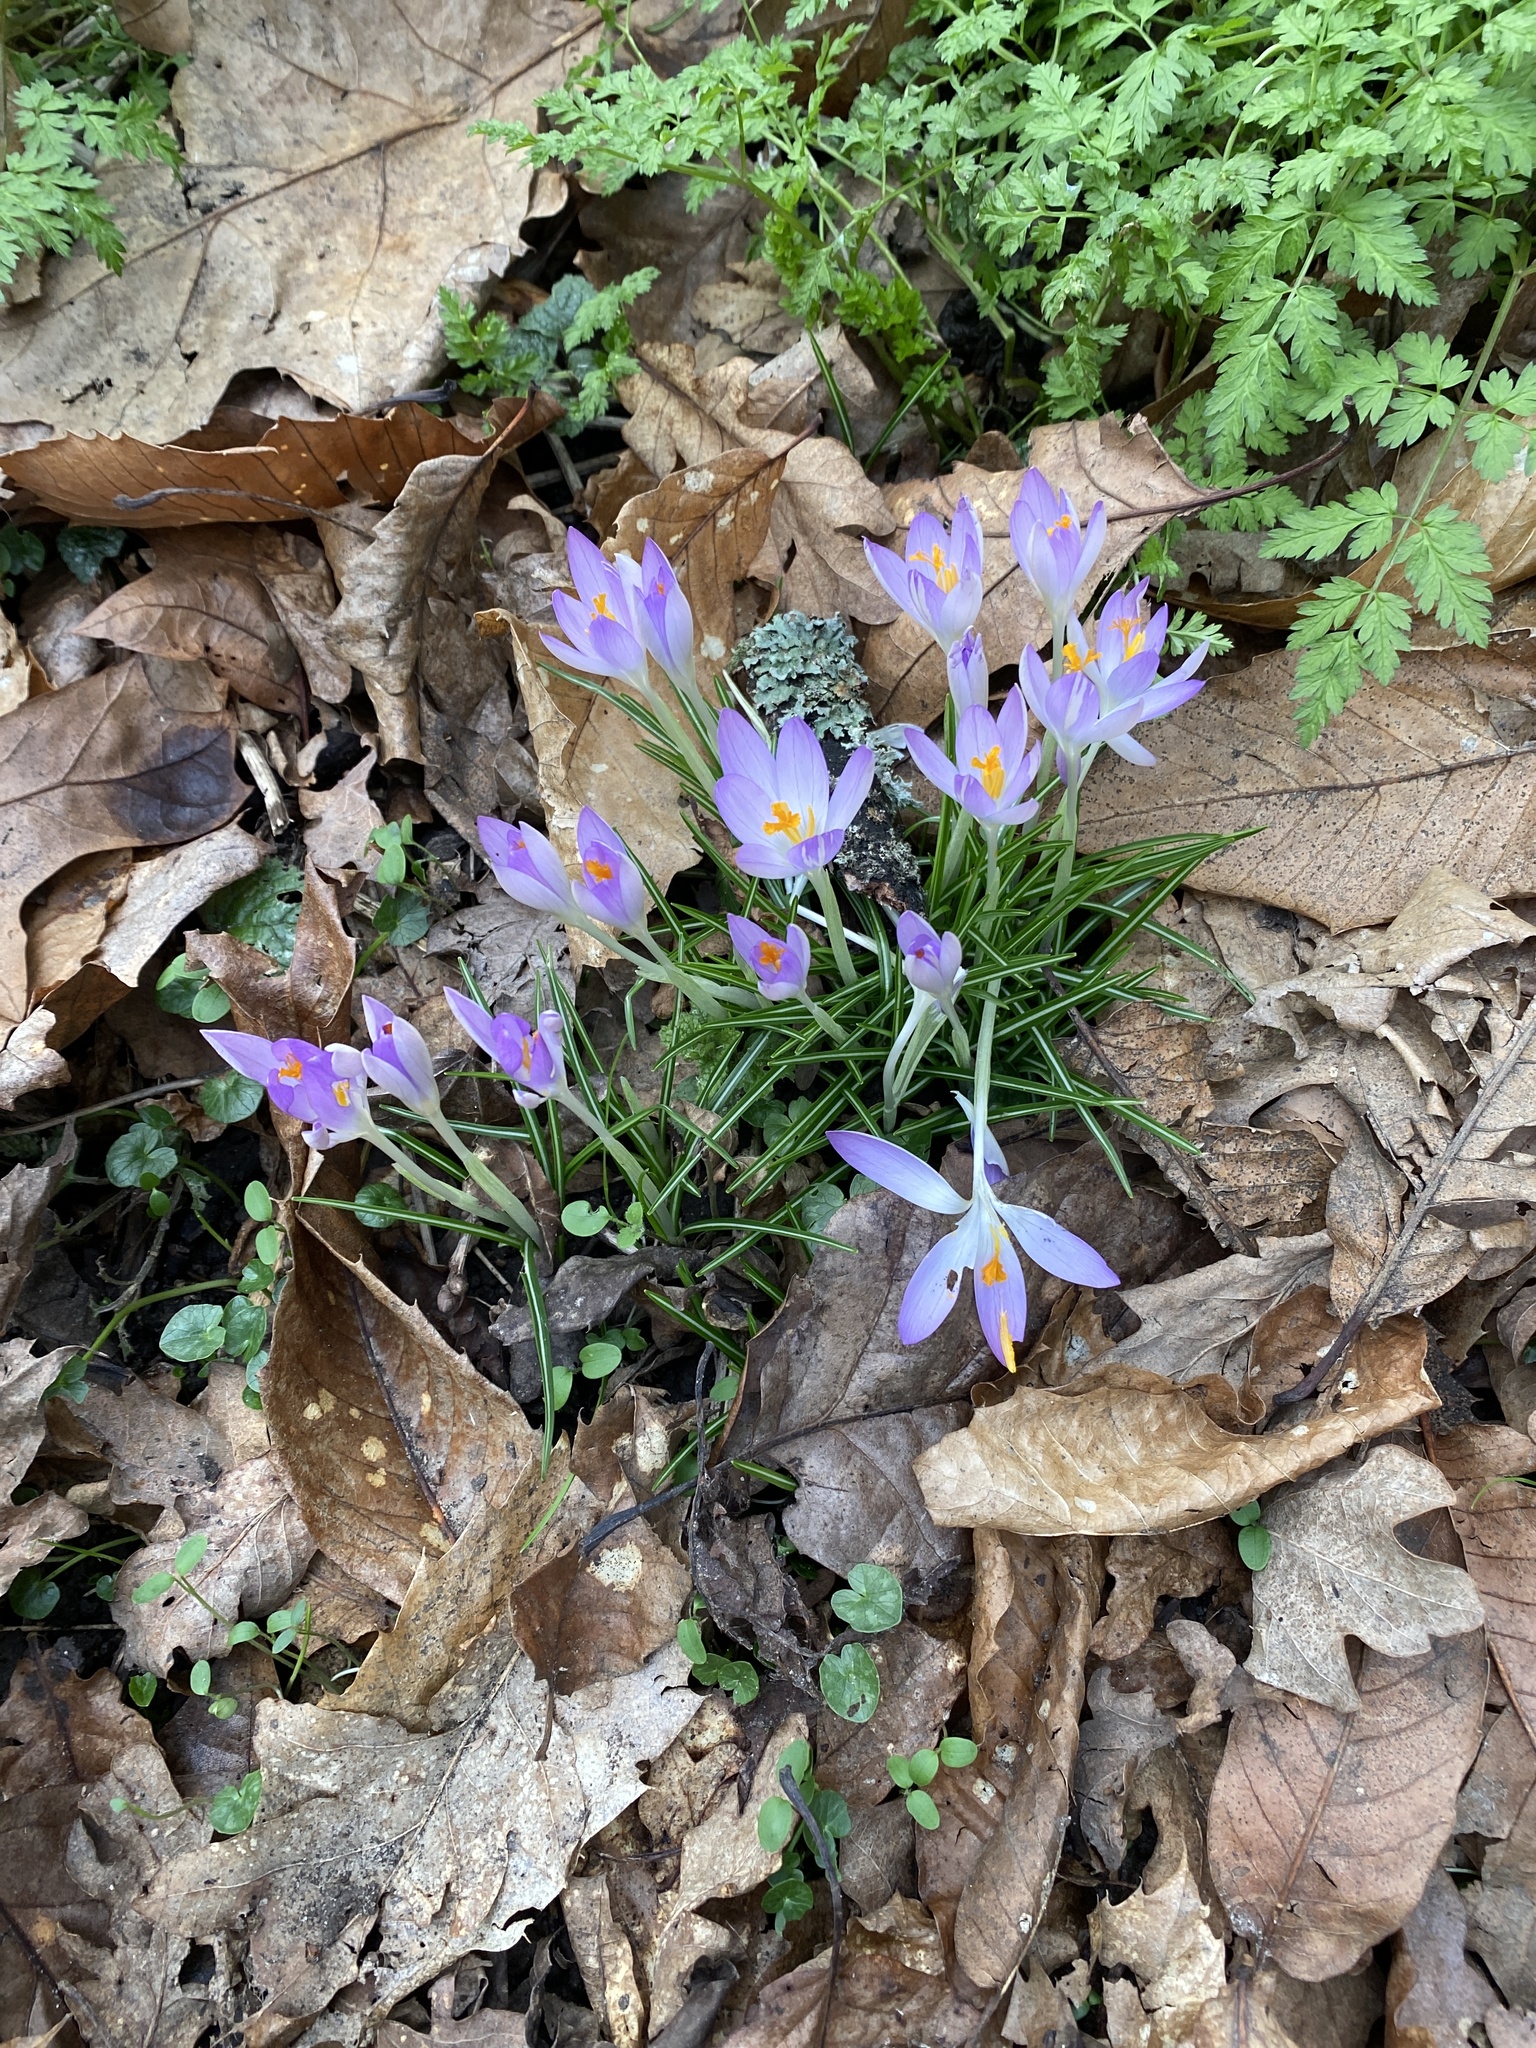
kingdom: Plantae
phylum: Tracheophyta
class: Liliopsida
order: Asparagales
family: Iridaceae
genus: Crocus
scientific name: Crocus tommasinianus
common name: Early crocus
